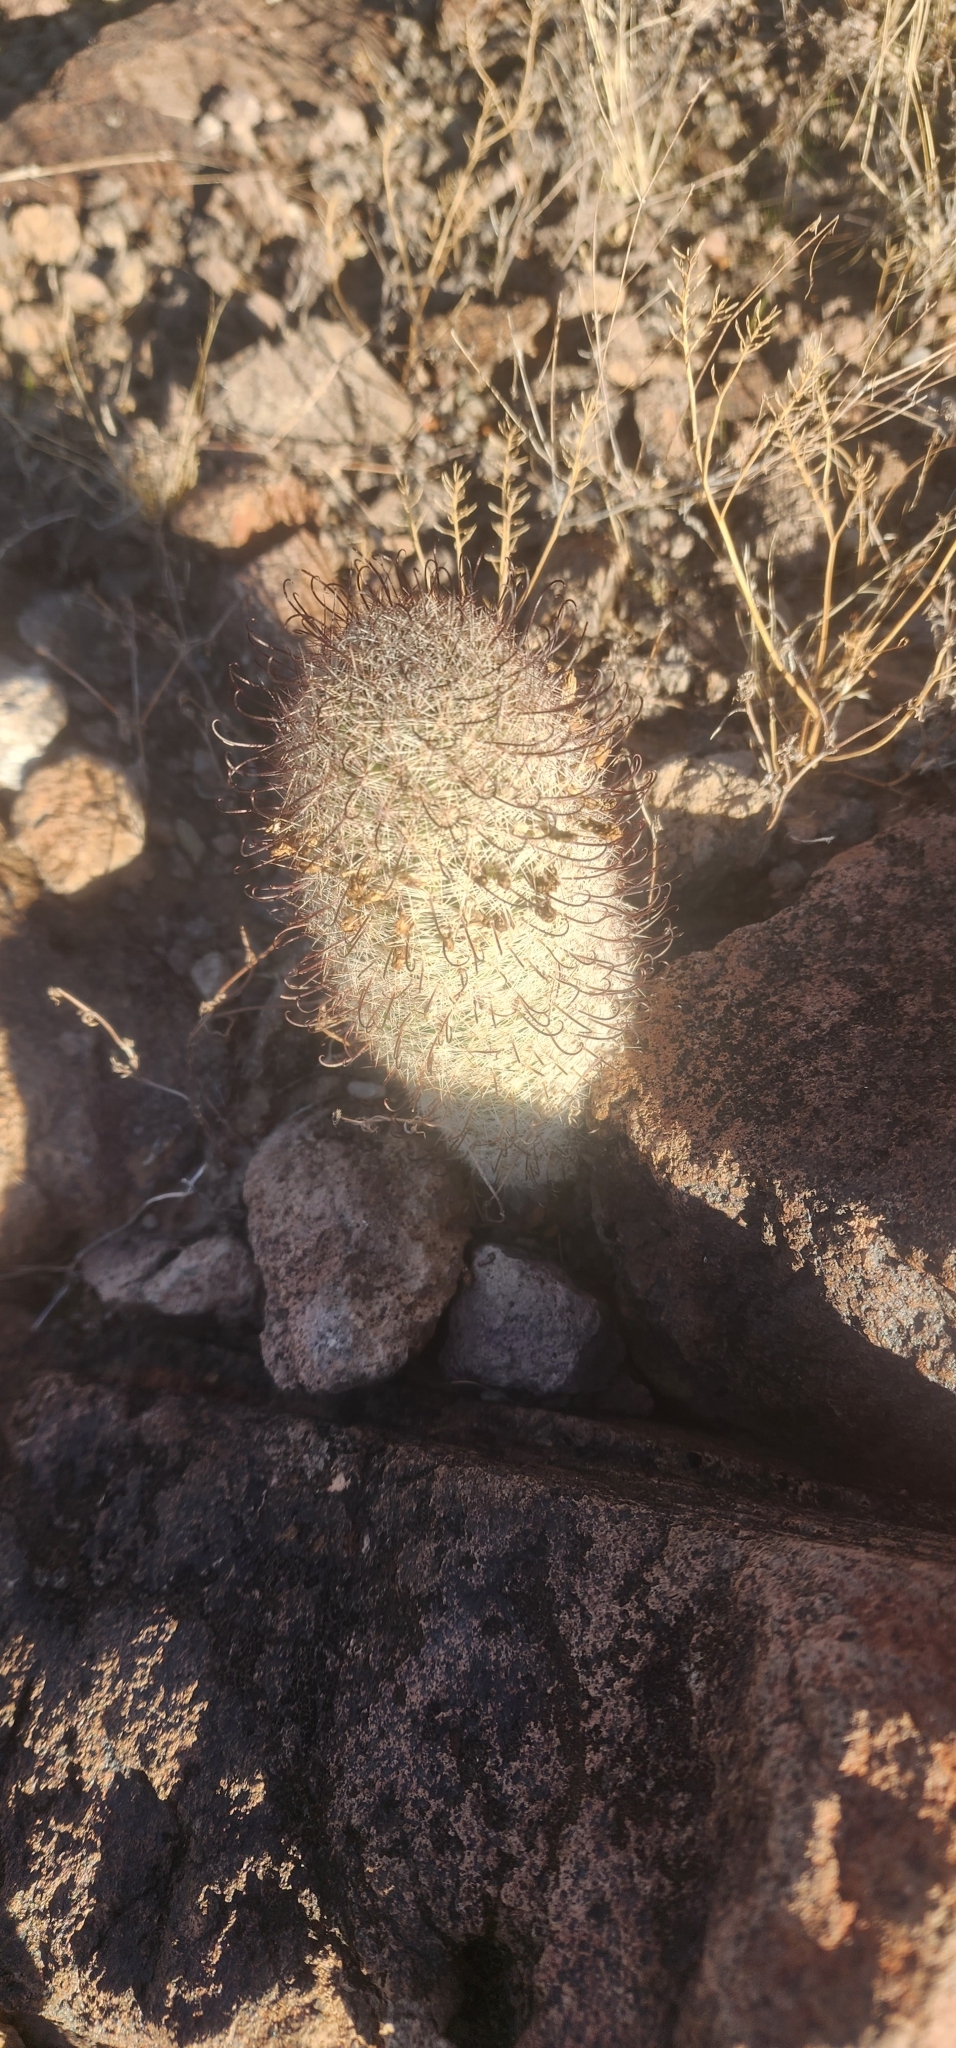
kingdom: Plantae
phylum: Tracheophyta
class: Magnoliopsida
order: Caryophyllales
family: Cactaceae
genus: Cochemiea
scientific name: Cochemiea grahamii
